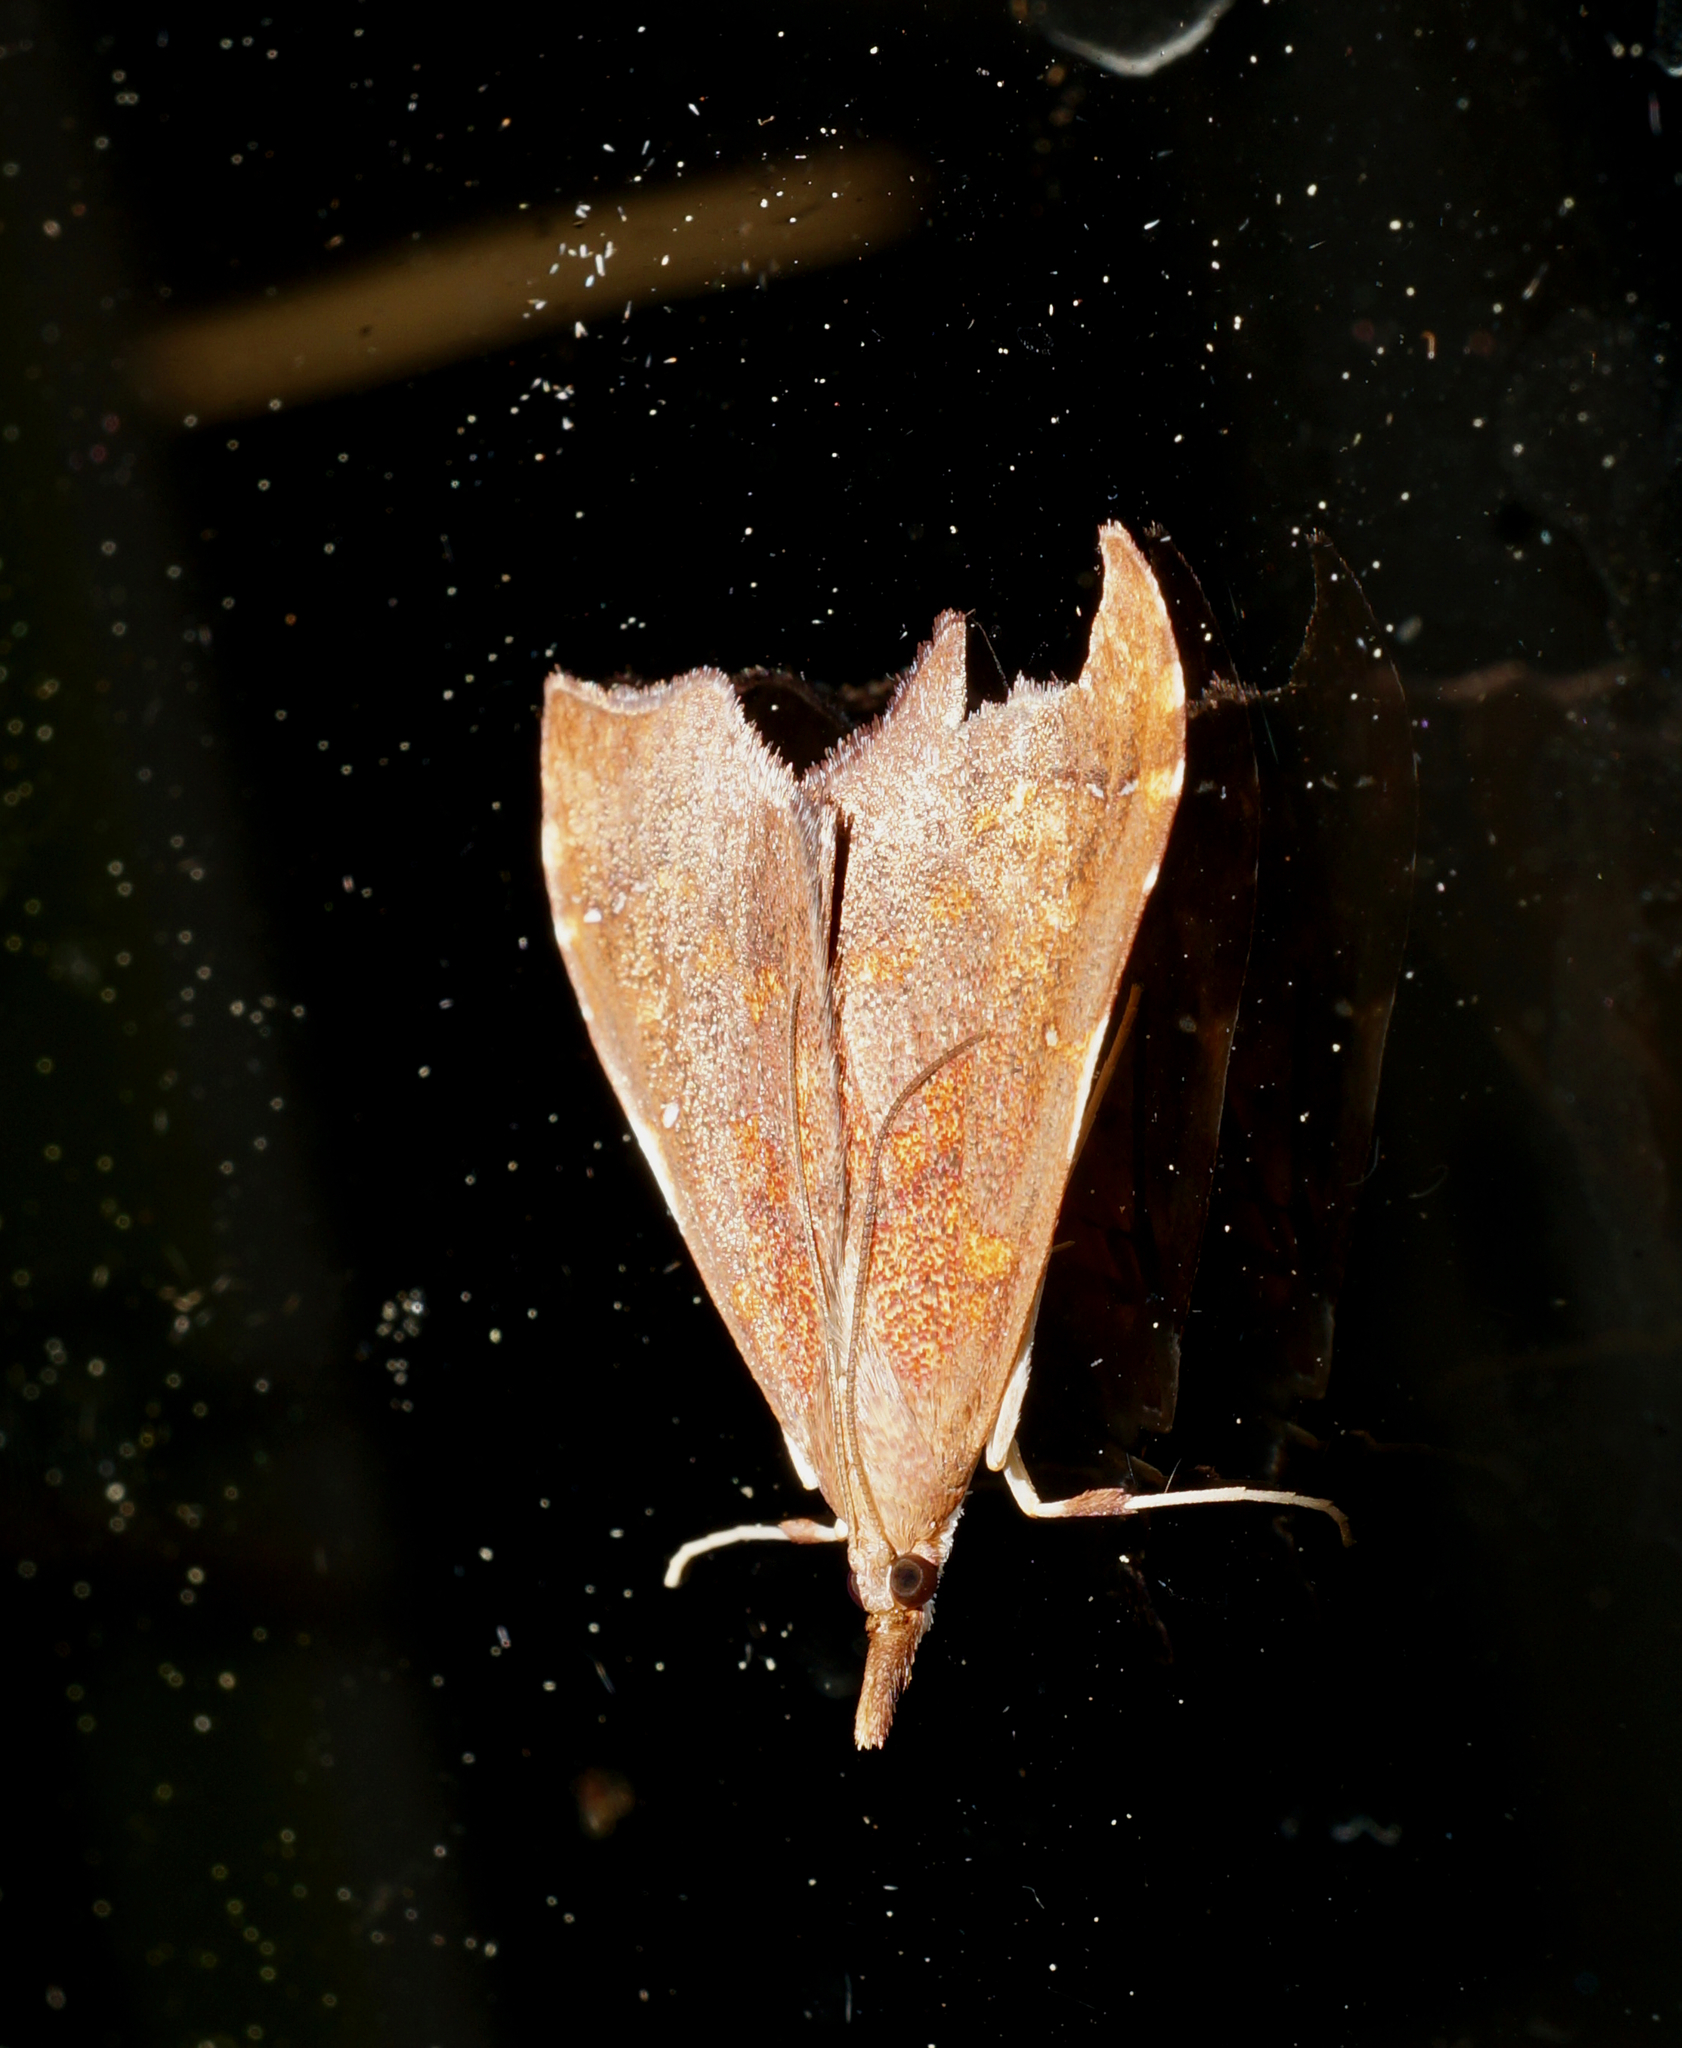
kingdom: Animalia
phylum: Arthropoda
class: Insecta
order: Lepidoptera
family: Crambidae
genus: Deana
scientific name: Deana hybreasalis
